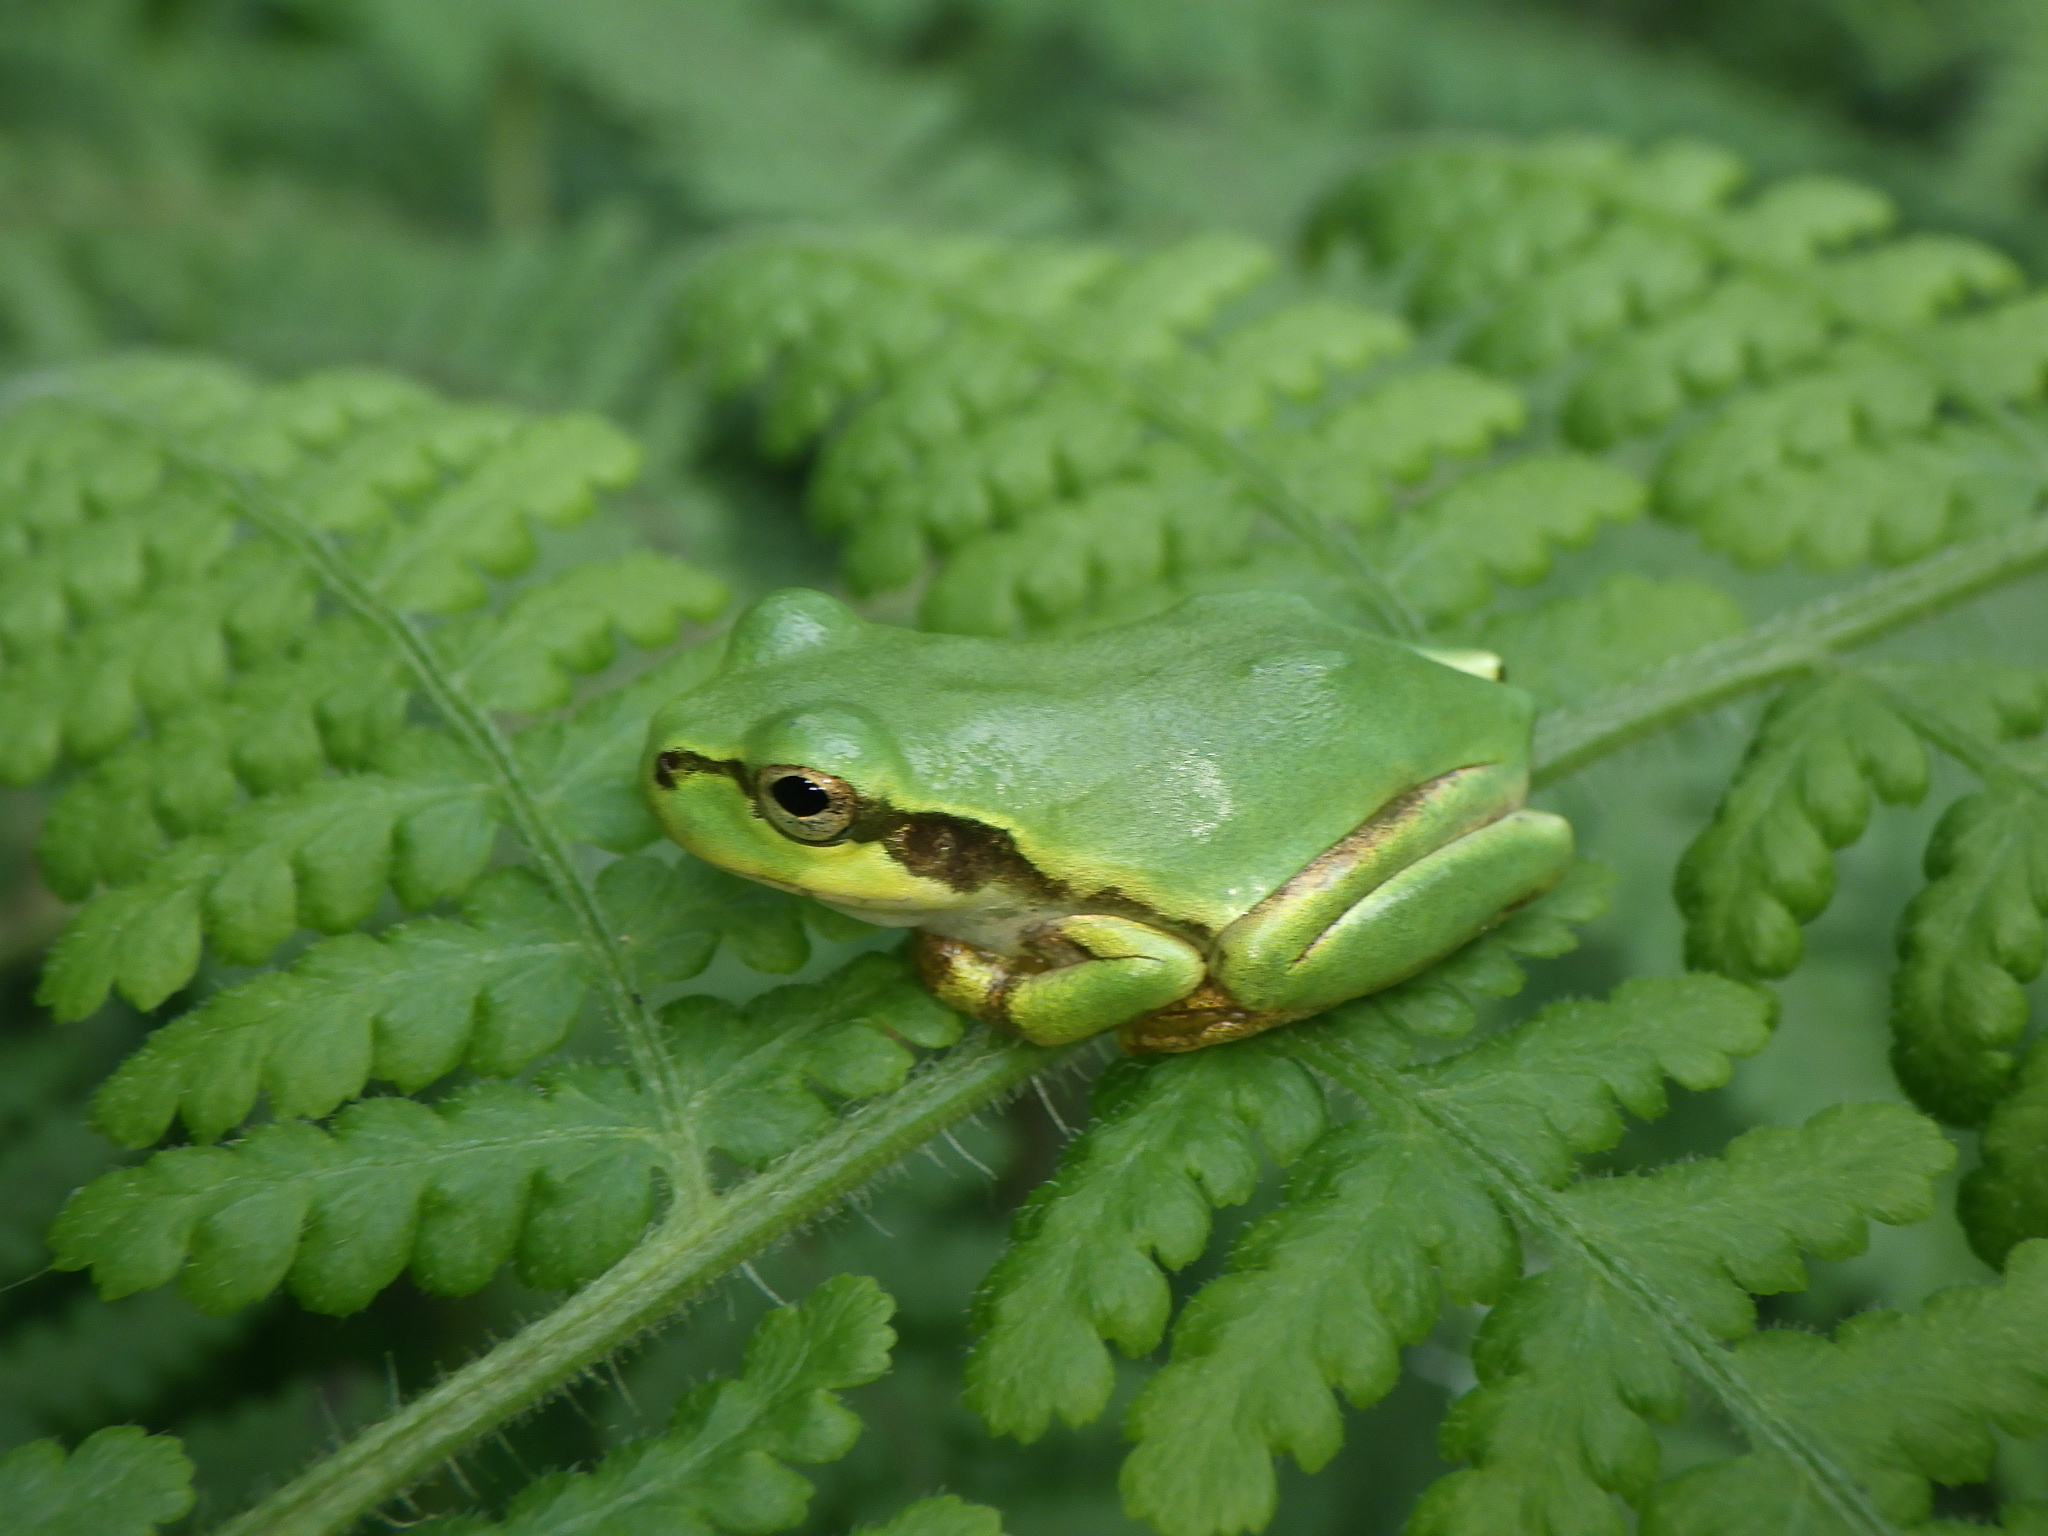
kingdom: Animalia
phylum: Chordata
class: Amphibia
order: Anura
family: Hylidae
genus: Dryophytes
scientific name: Dryophytes japonicus
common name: Japanese treefrog
